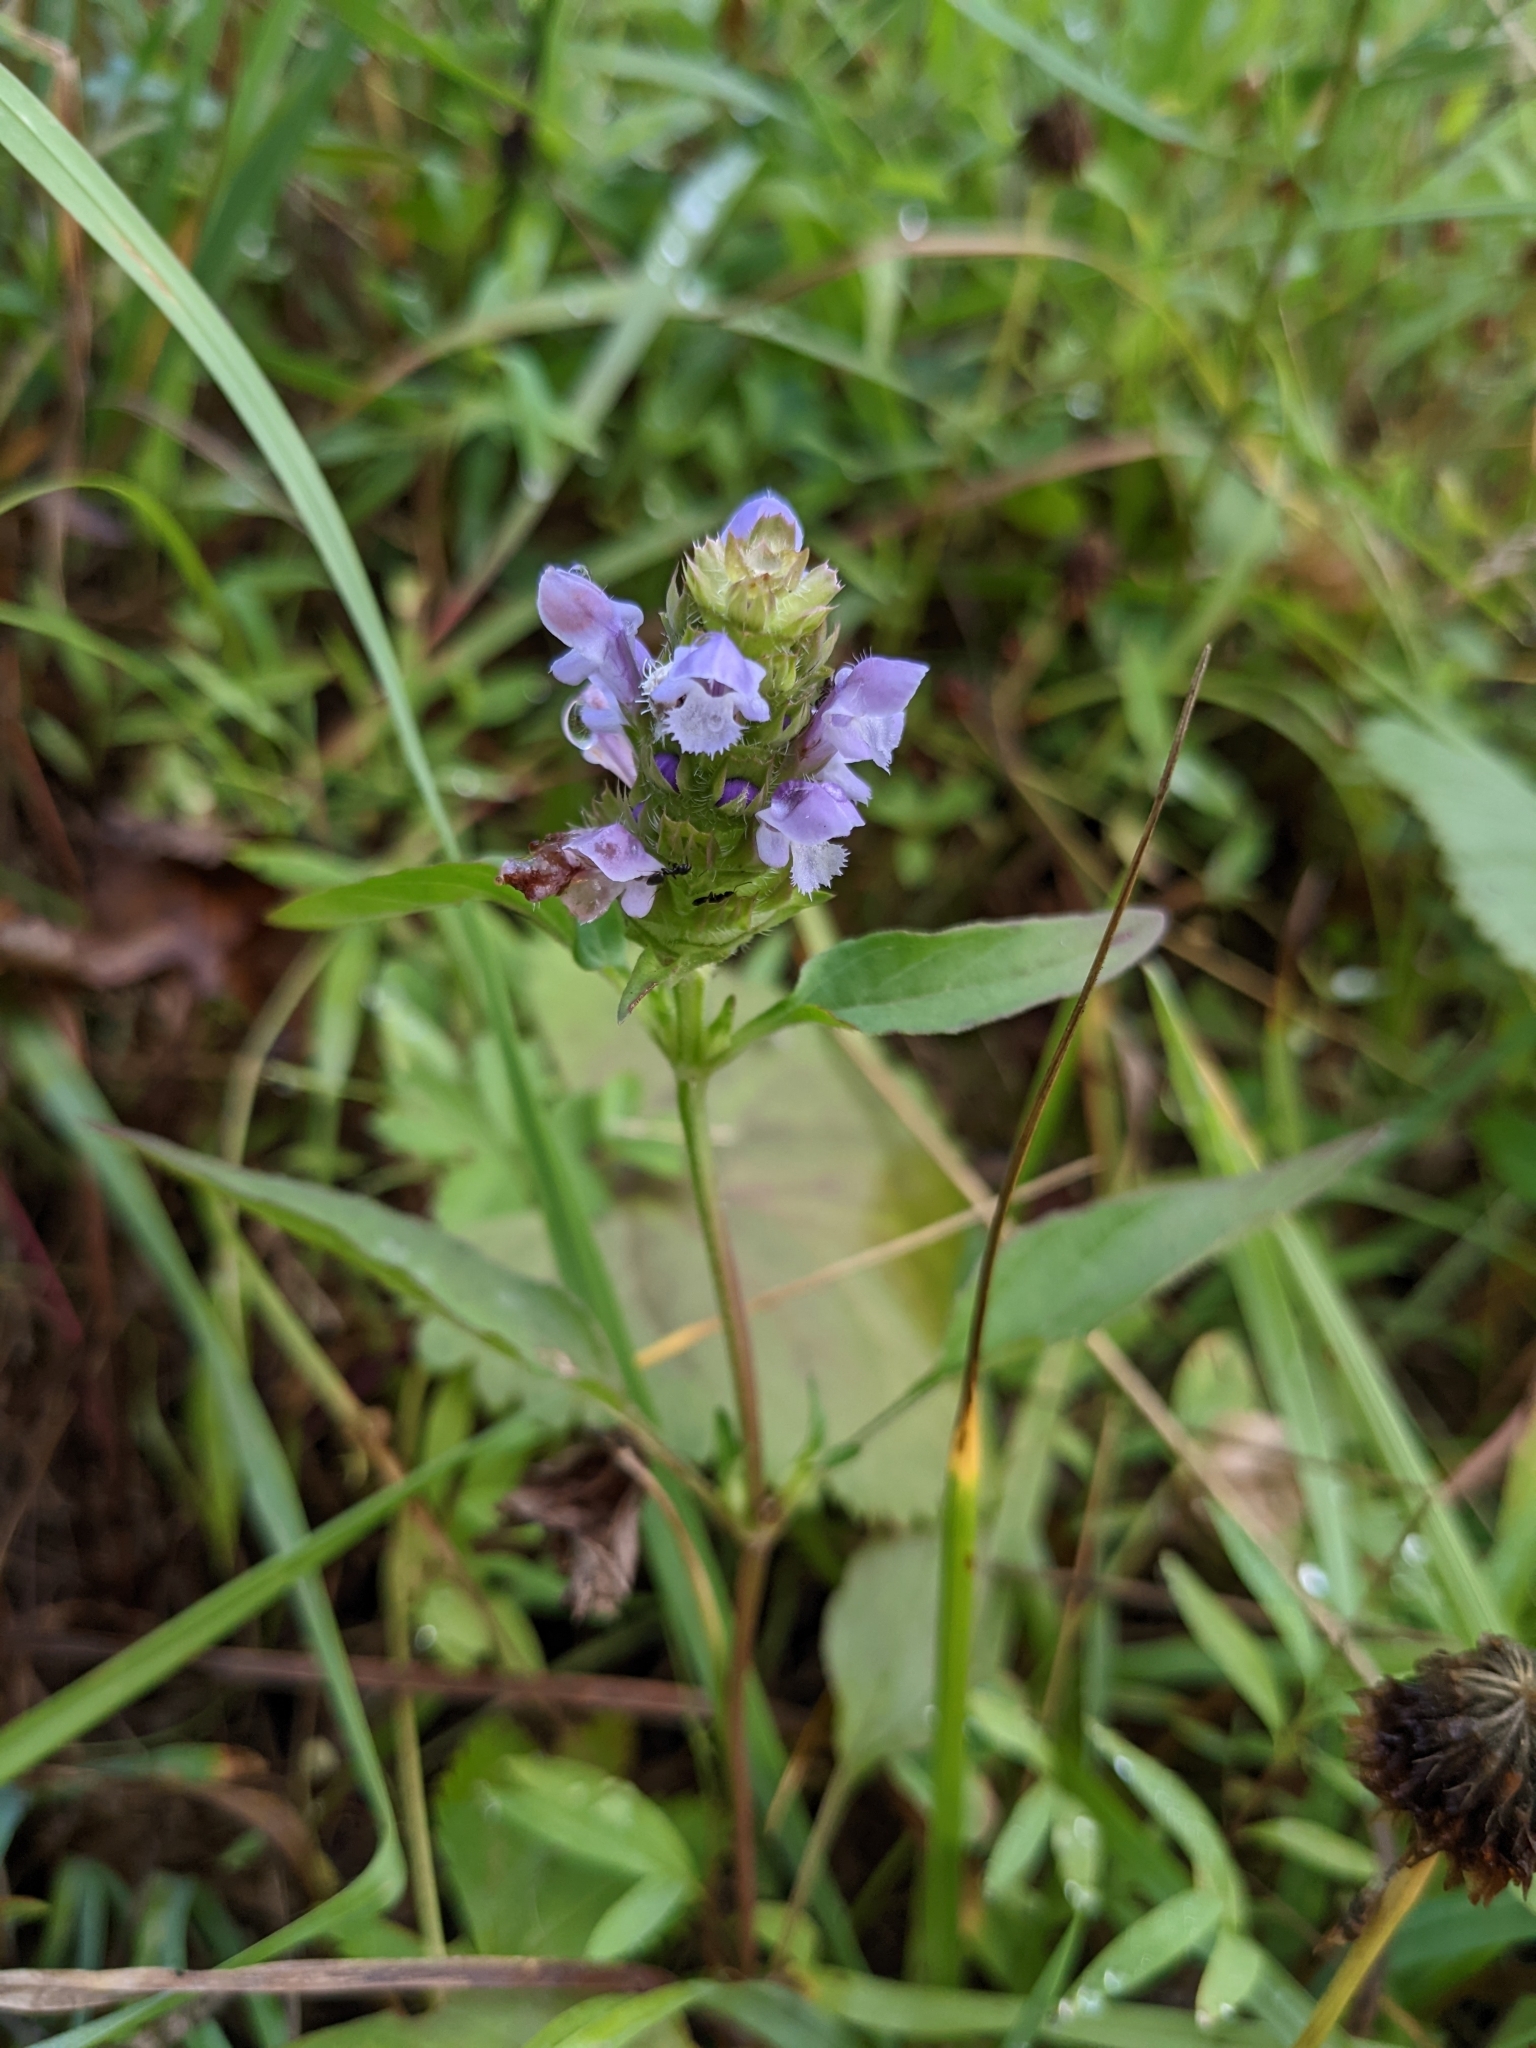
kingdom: Plantae
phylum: Tracheophyta
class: Magnoliopsida
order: Lamiales
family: Lamiaceae
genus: Prunella
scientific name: Prunella vulgaris
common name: Heal-all
